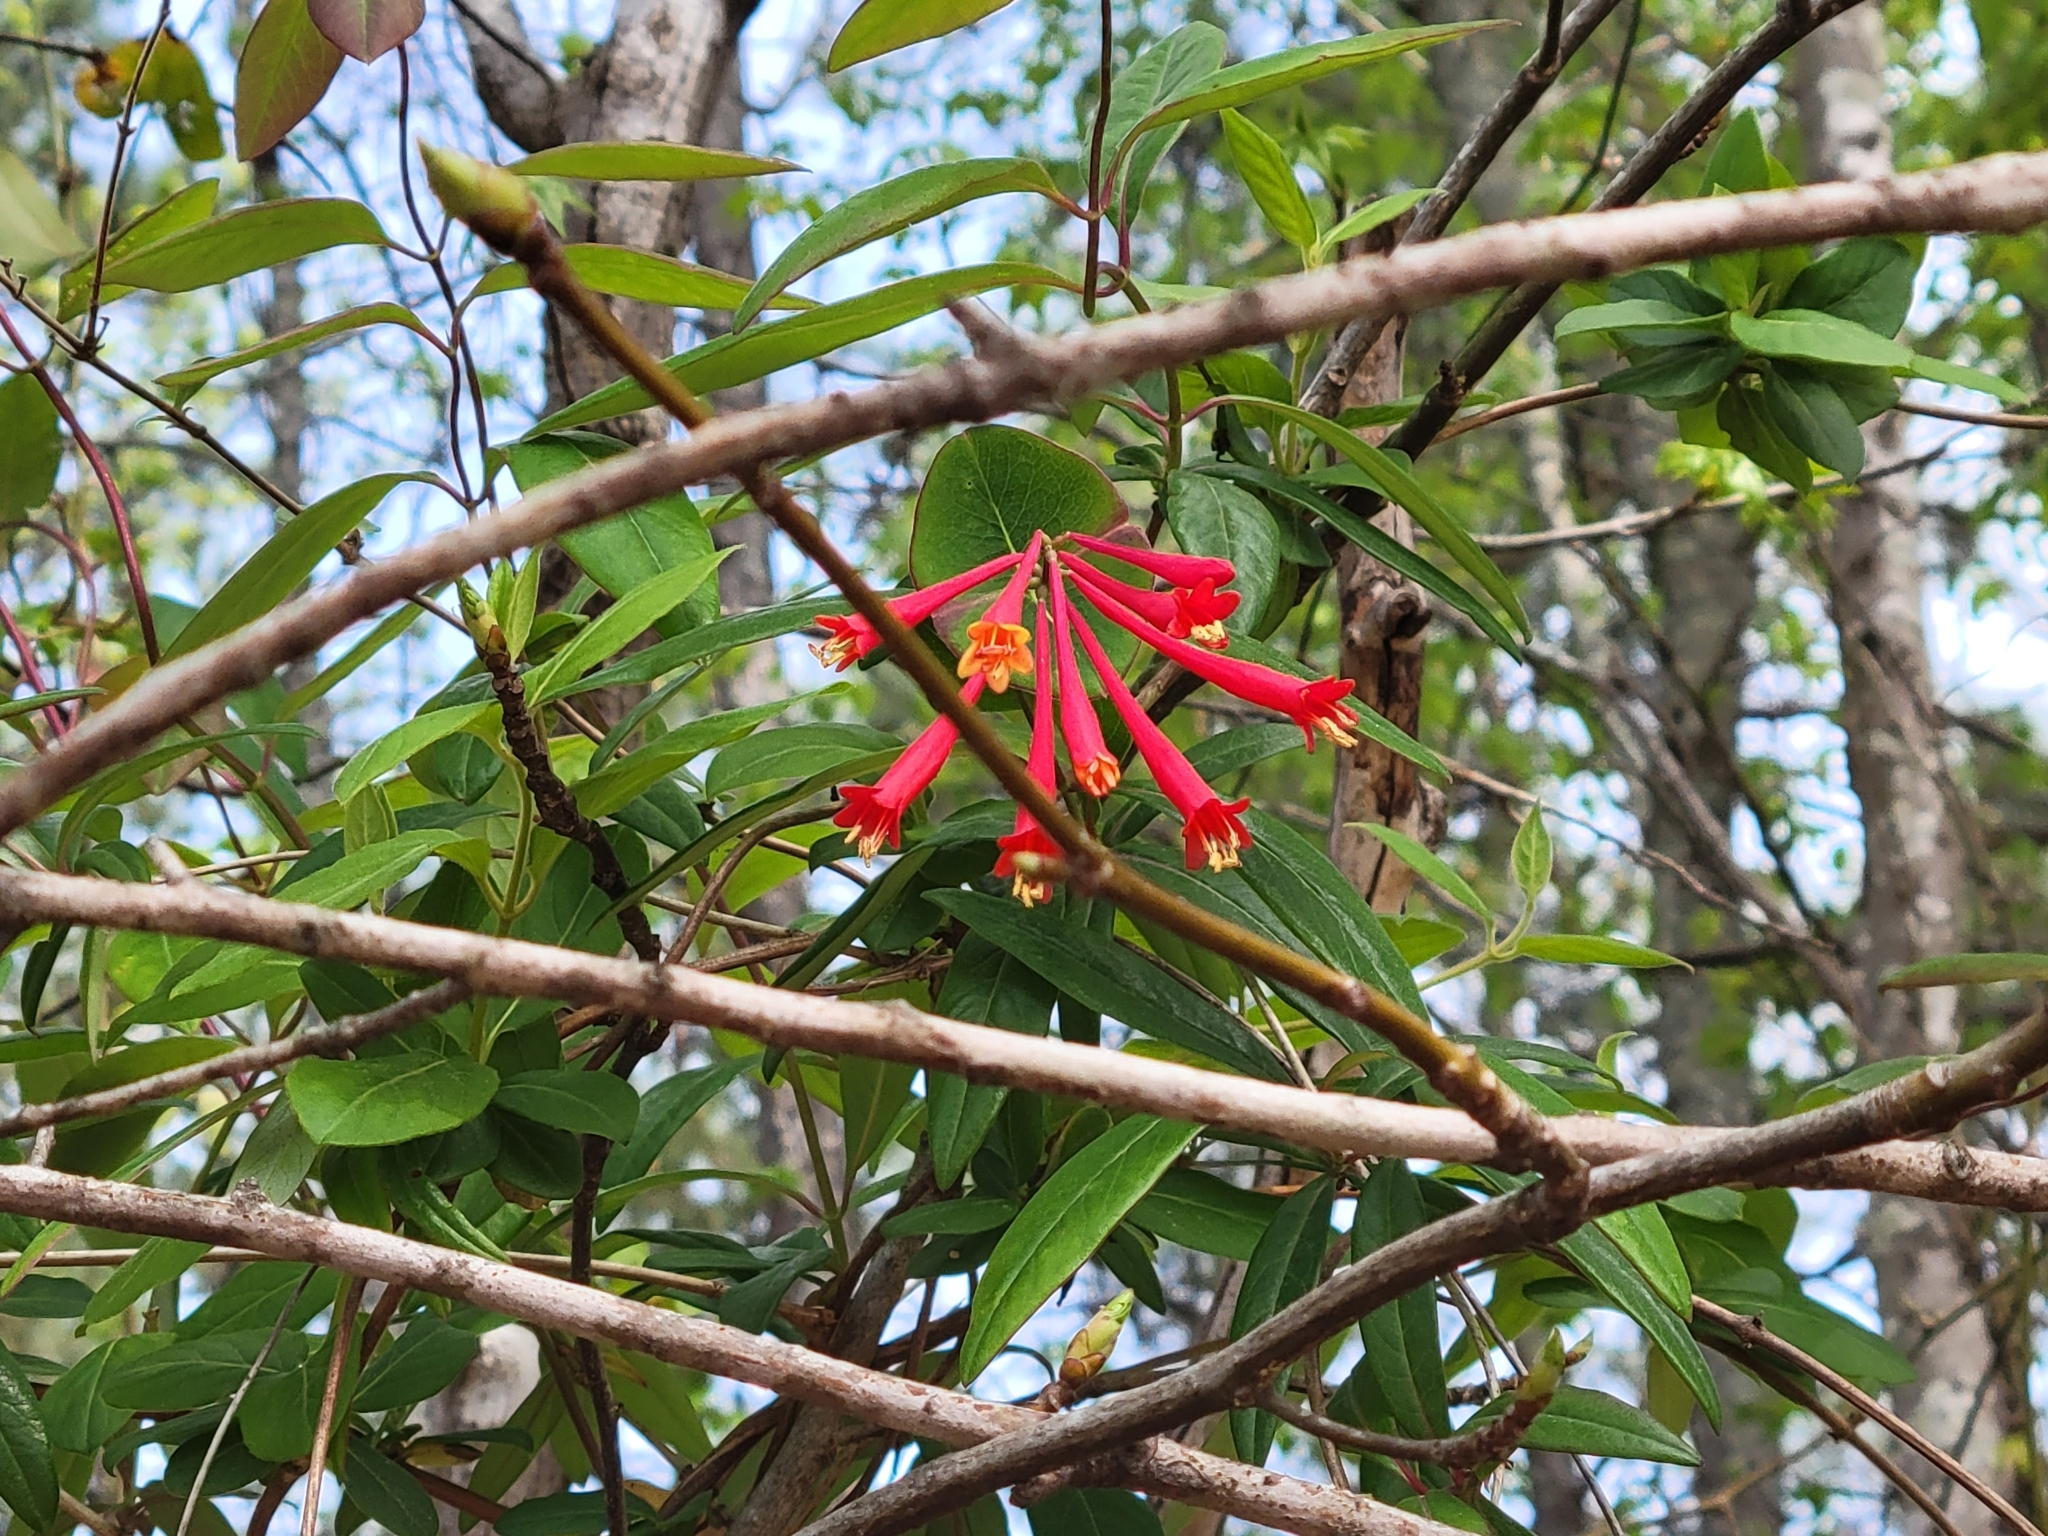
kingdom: Plantae
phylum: Tracheophyta
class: Magnoliopsida
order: Dipsacales
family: Caprifoliaceae
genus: Lonicera
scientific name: Lonicera sempervirens
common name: Coral honeysuckle
